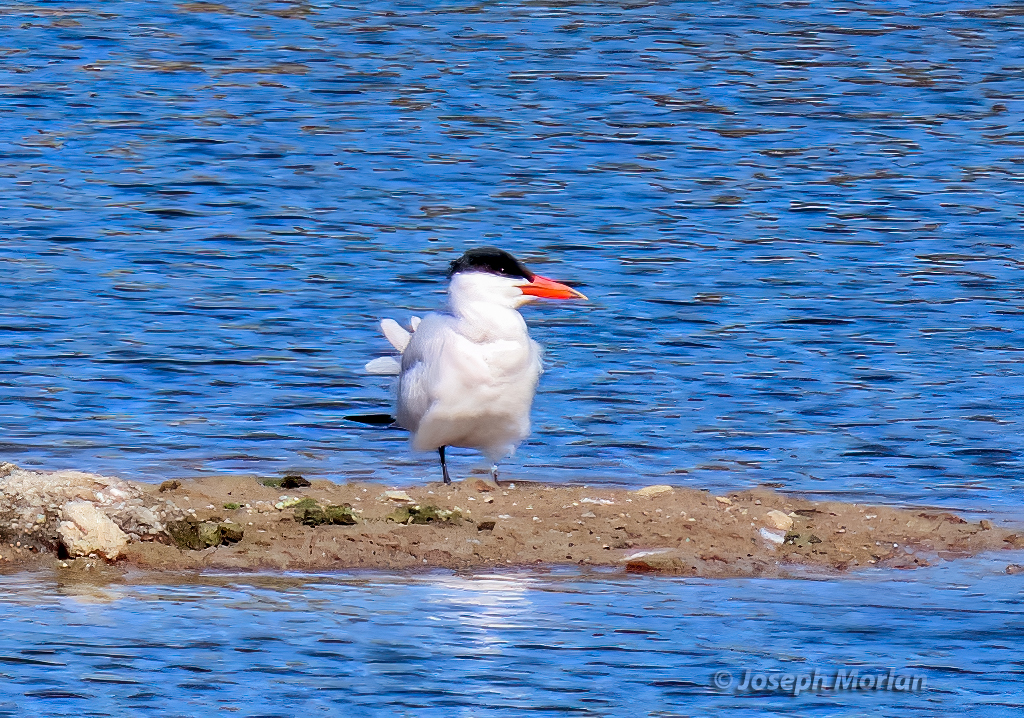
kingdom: Animalia
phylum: Chordata
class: Aves
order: Charadriiformes
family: Laridae
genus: Hydroprogne
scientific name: Hydroprogne caspia
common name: Caspian tern
